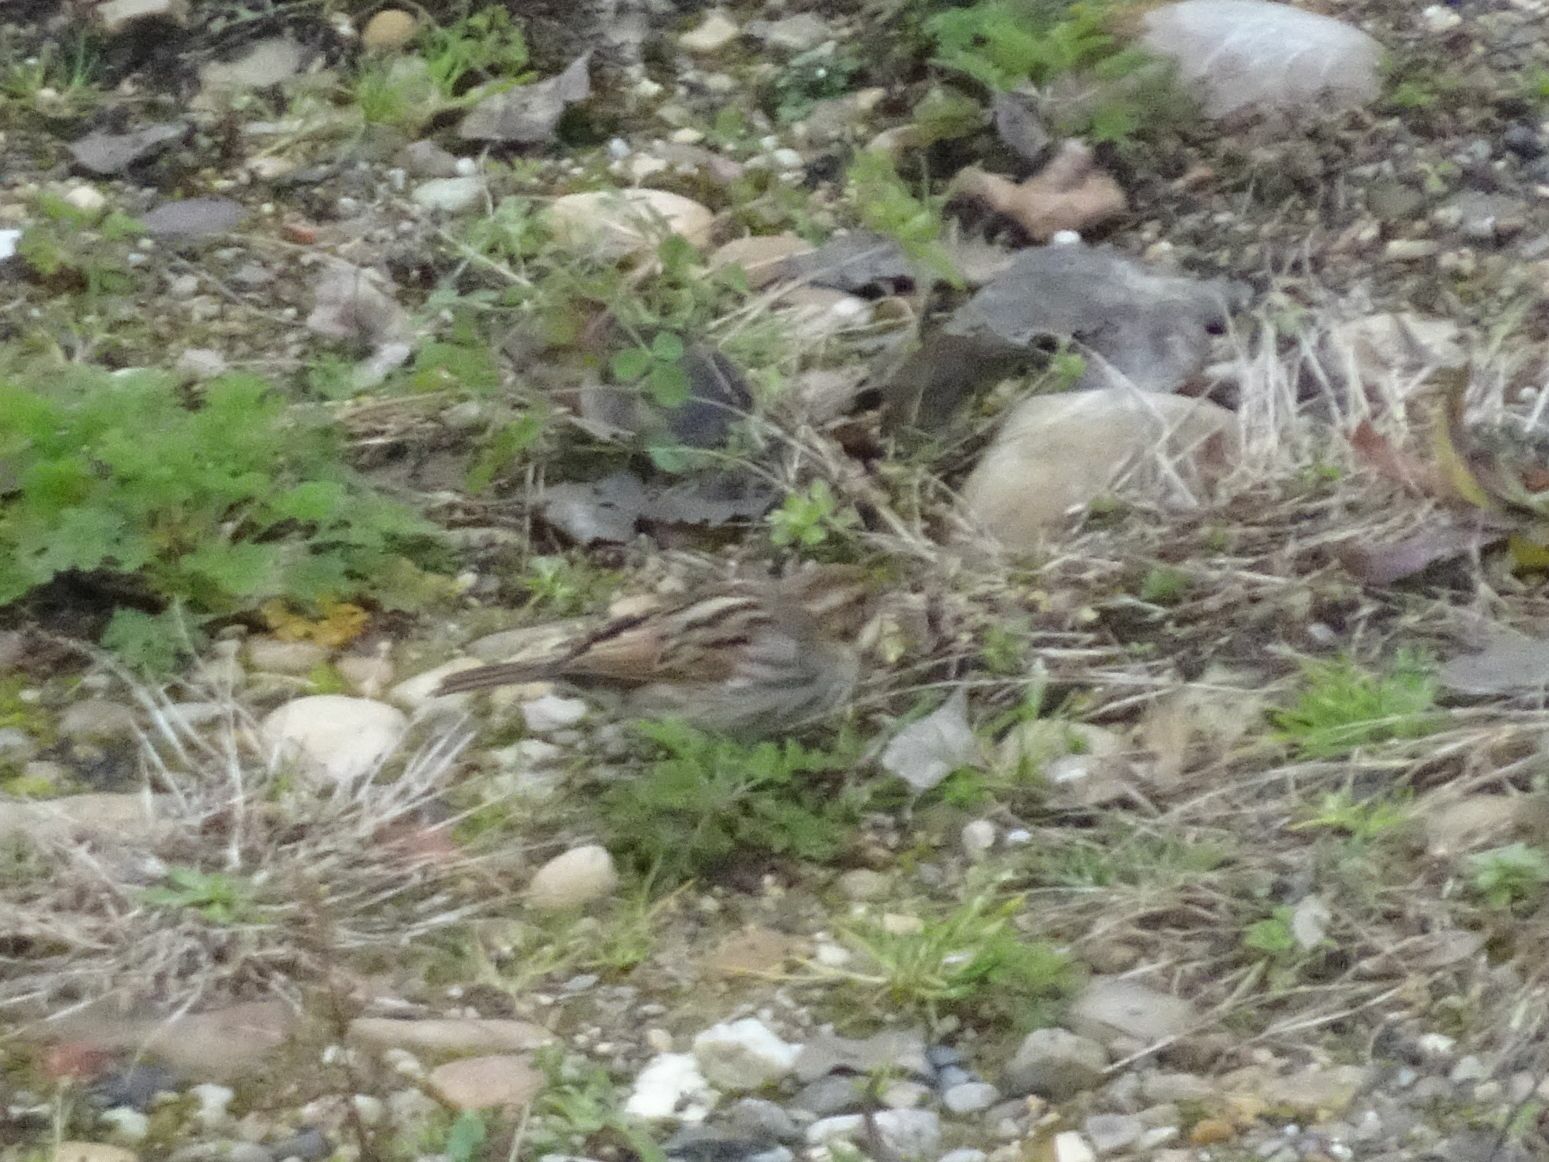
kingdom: Animalia
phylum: Chordata
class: Aves
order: Passeriformes
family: Emberizidae
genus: Emberiza
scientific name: Emberiza schoeniclus
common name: Reed bunting
